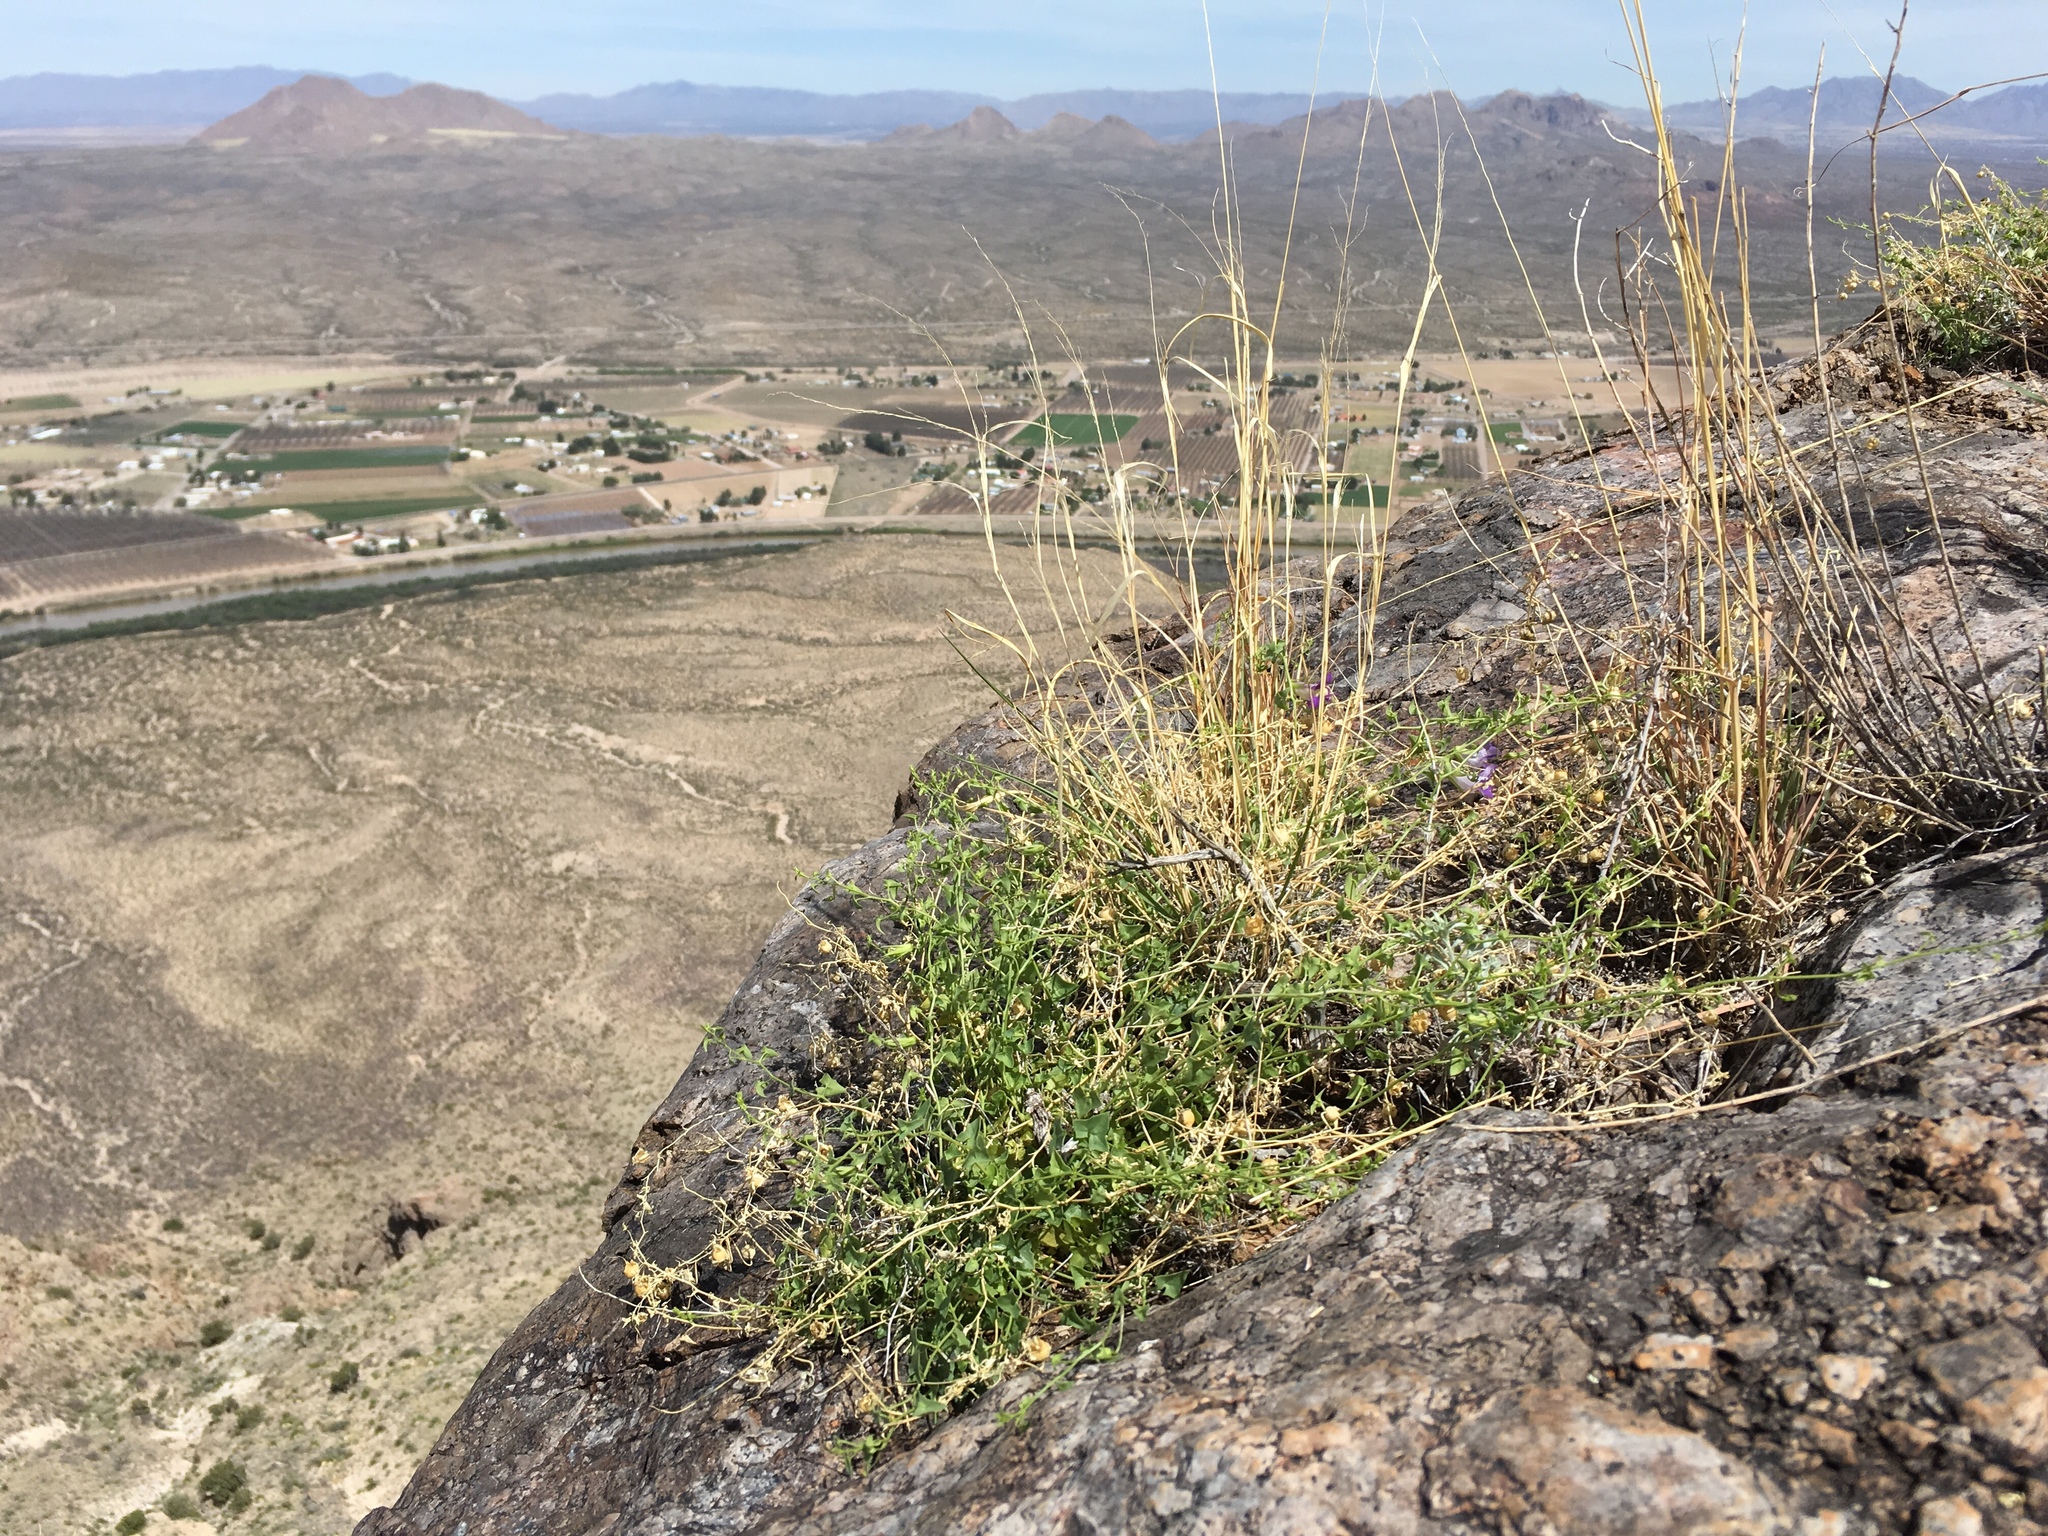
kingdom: Plantae
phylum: Tracheophyta
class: Magnoliopsida
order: Lamiales
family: Plantaginaceae
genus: Maurandella
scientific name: Maurandella antirrhiniflora
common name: Violet twining-snapdragon
